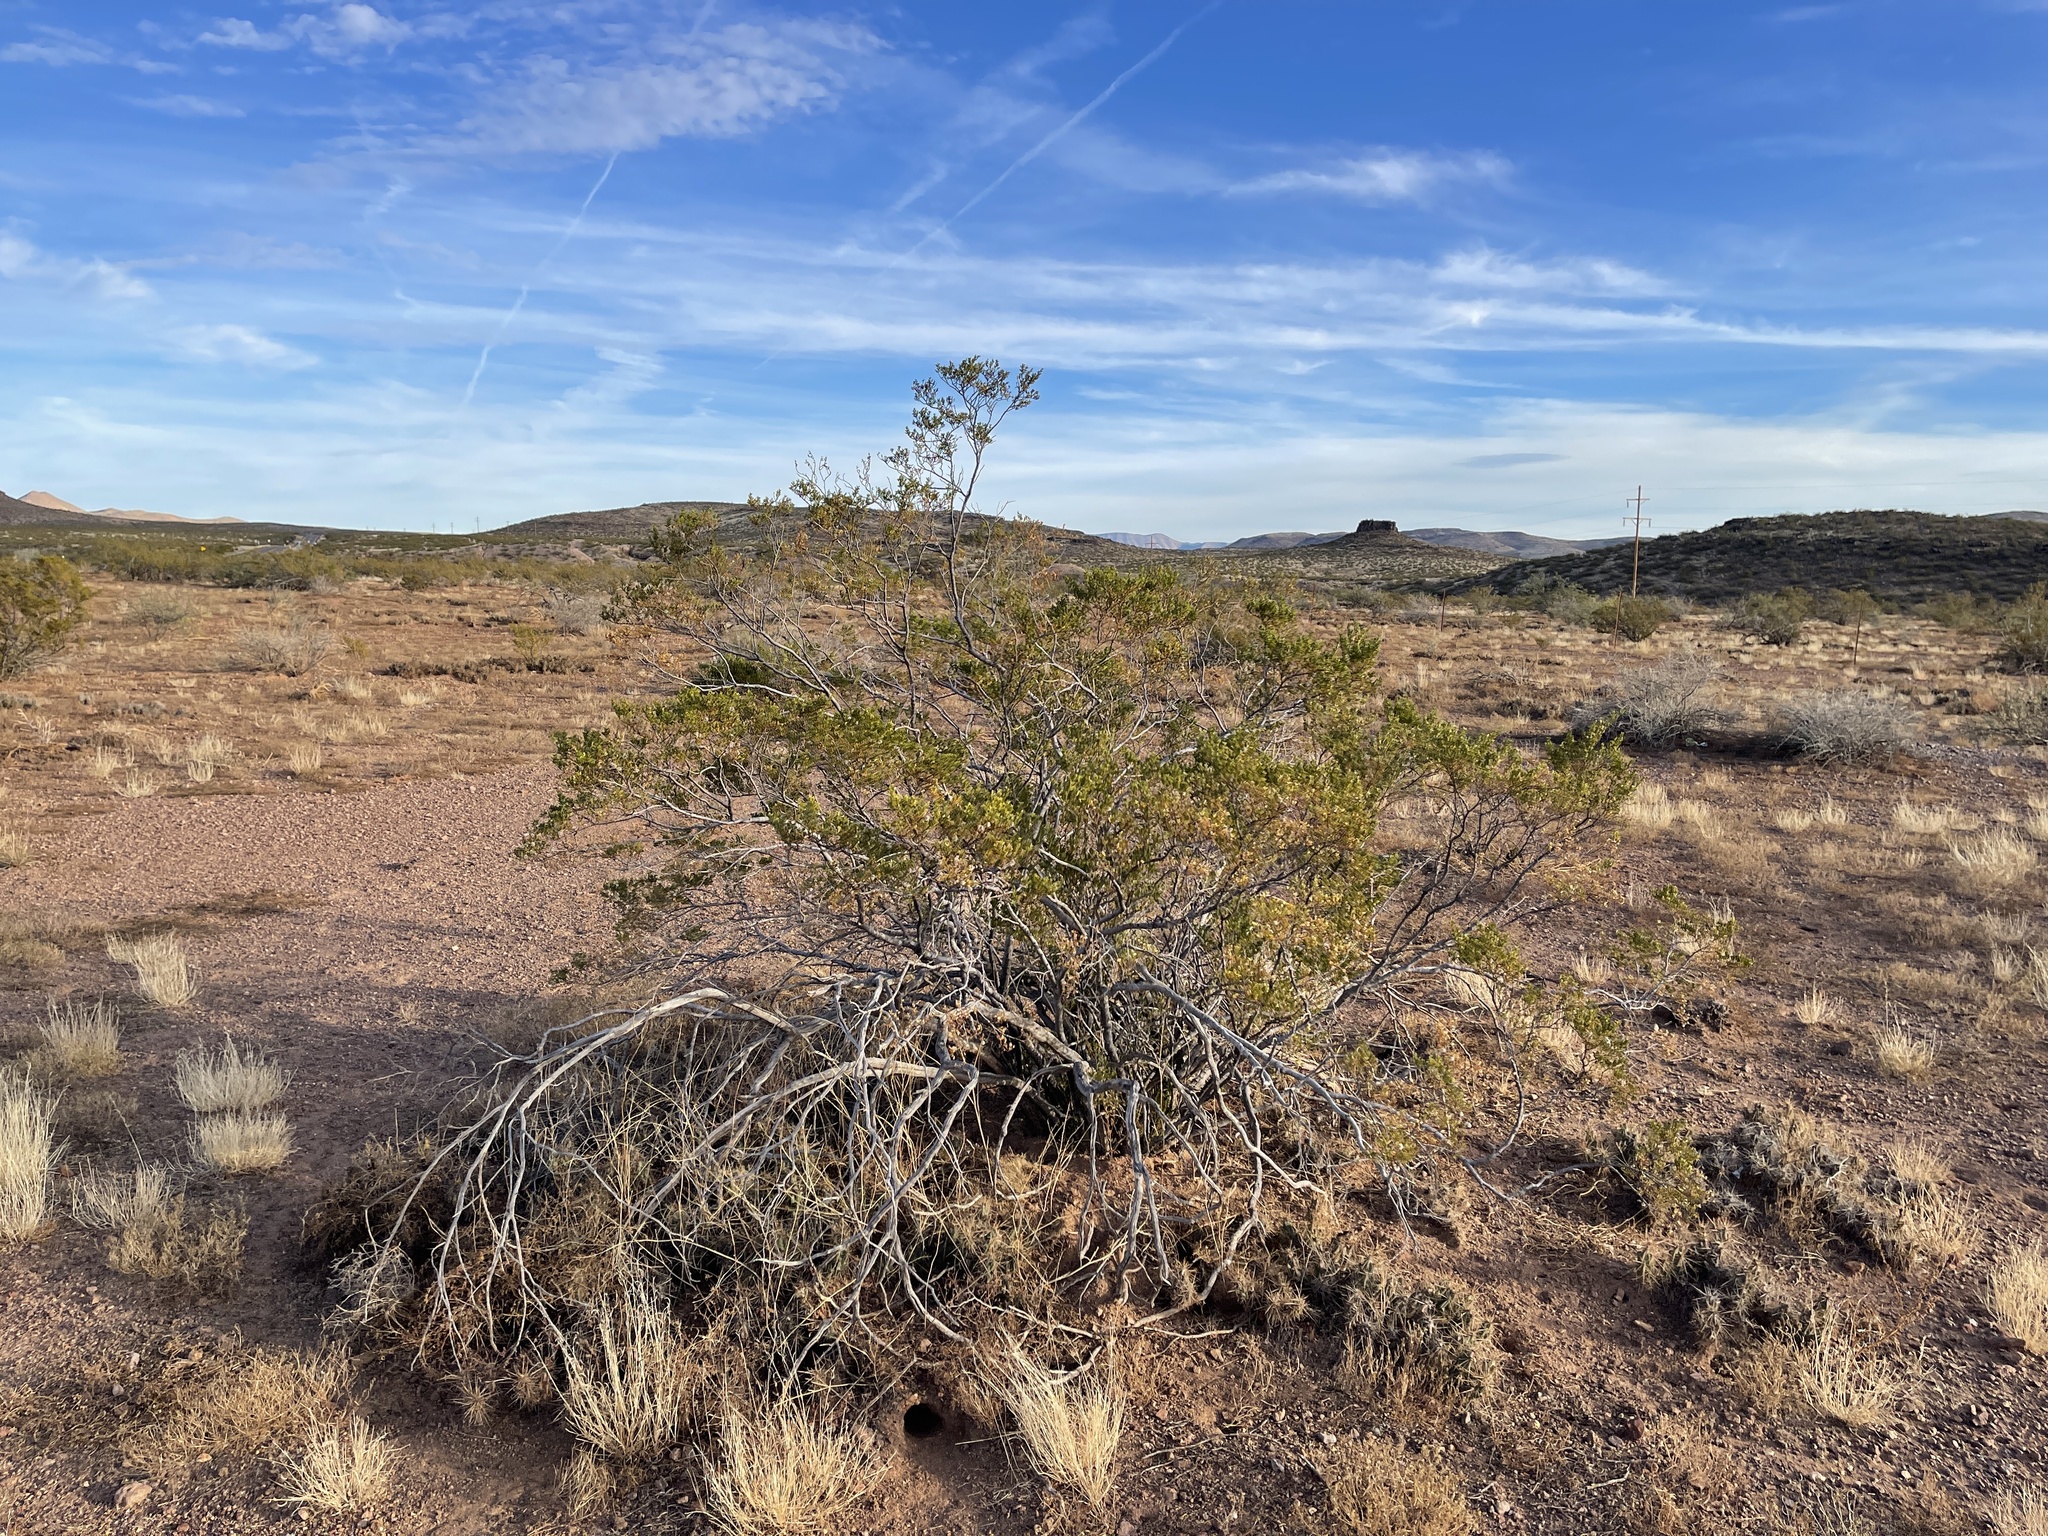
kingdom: Plantae
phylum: Tracheophyta
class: Magnoliopsida
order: Zygophyllales
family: Zygophyllaceae
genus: Larrea
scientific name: Larrea tridentata
